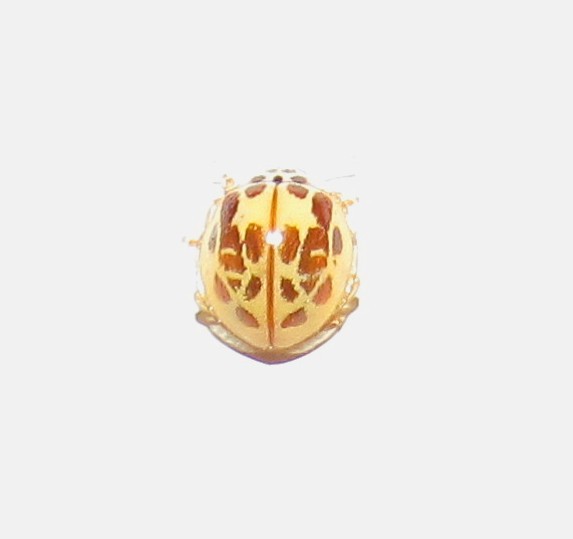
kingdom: Animalia
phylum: Arthropoda
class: Insecta
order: Coleoptera
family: Coccinellidae
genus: Psyllobora
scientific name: Psyllobora confluens
